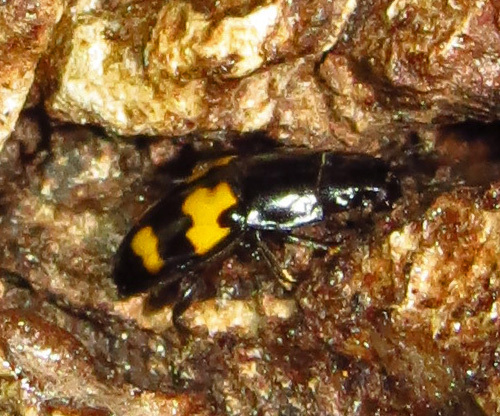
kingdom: Animalia
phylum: Arthropoda
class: Insecta
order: Coleoptera
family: Nitidulidae
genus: Glischrochilus
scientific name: Glischrochilus fasciatus
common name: Picnic beetle
